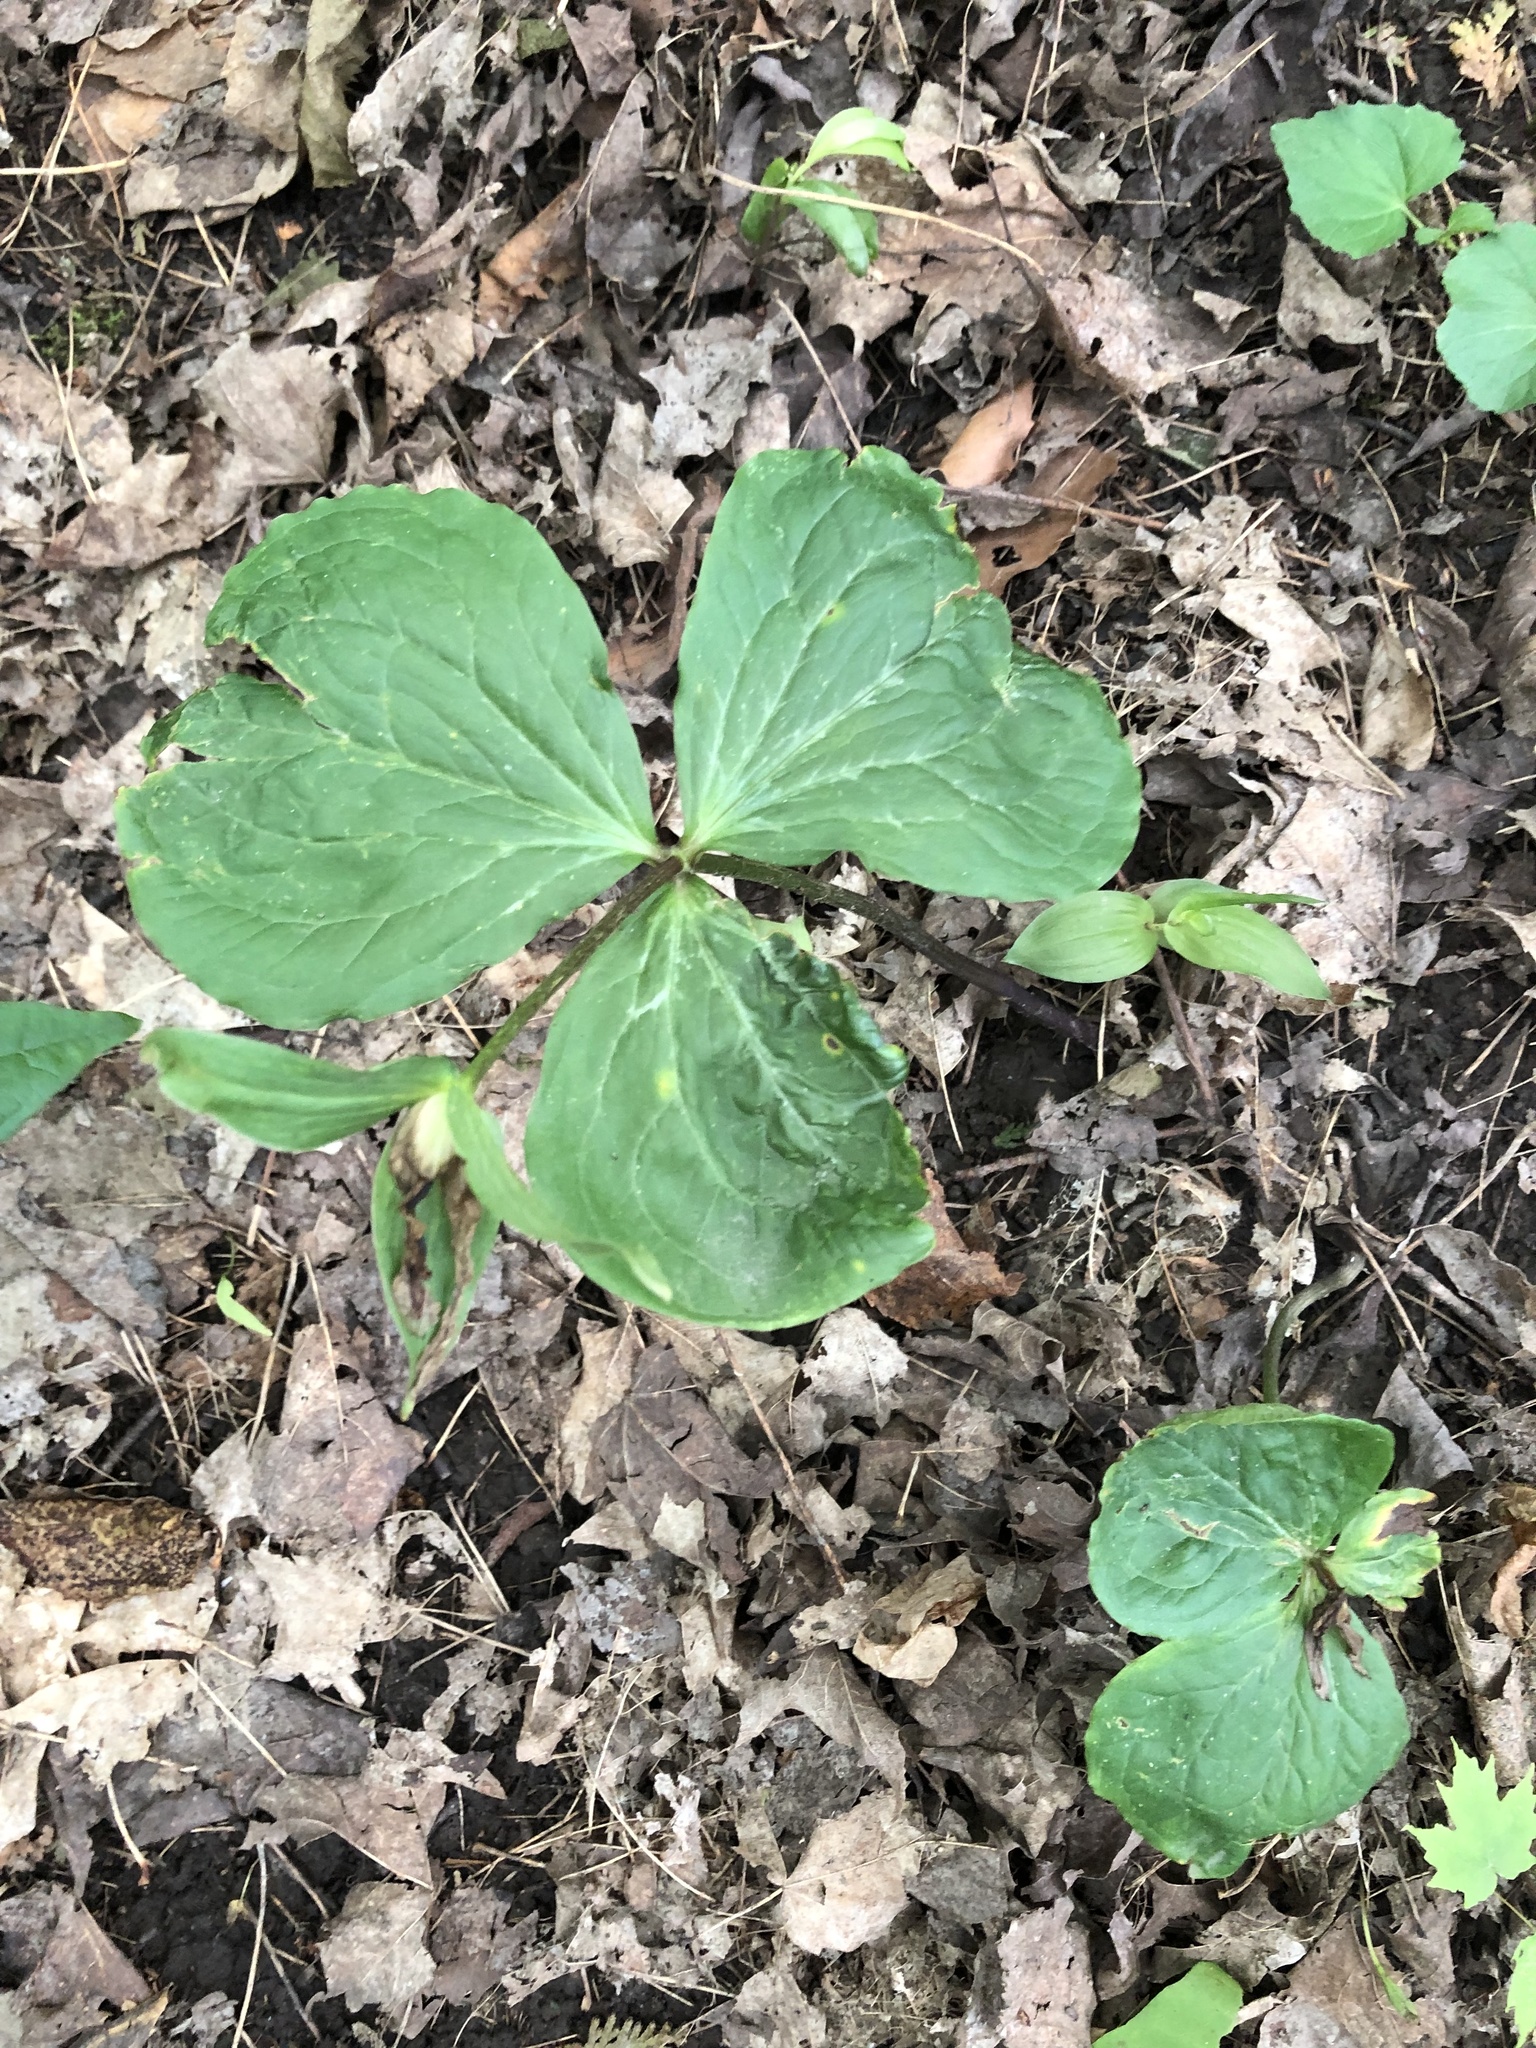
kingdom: Plantae
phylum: Tracheophyta
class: Liliopsida
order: Liliales
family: Melanthiaceae
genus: Trillium
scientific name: Trillium grandiflorum
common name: Great white trillium
